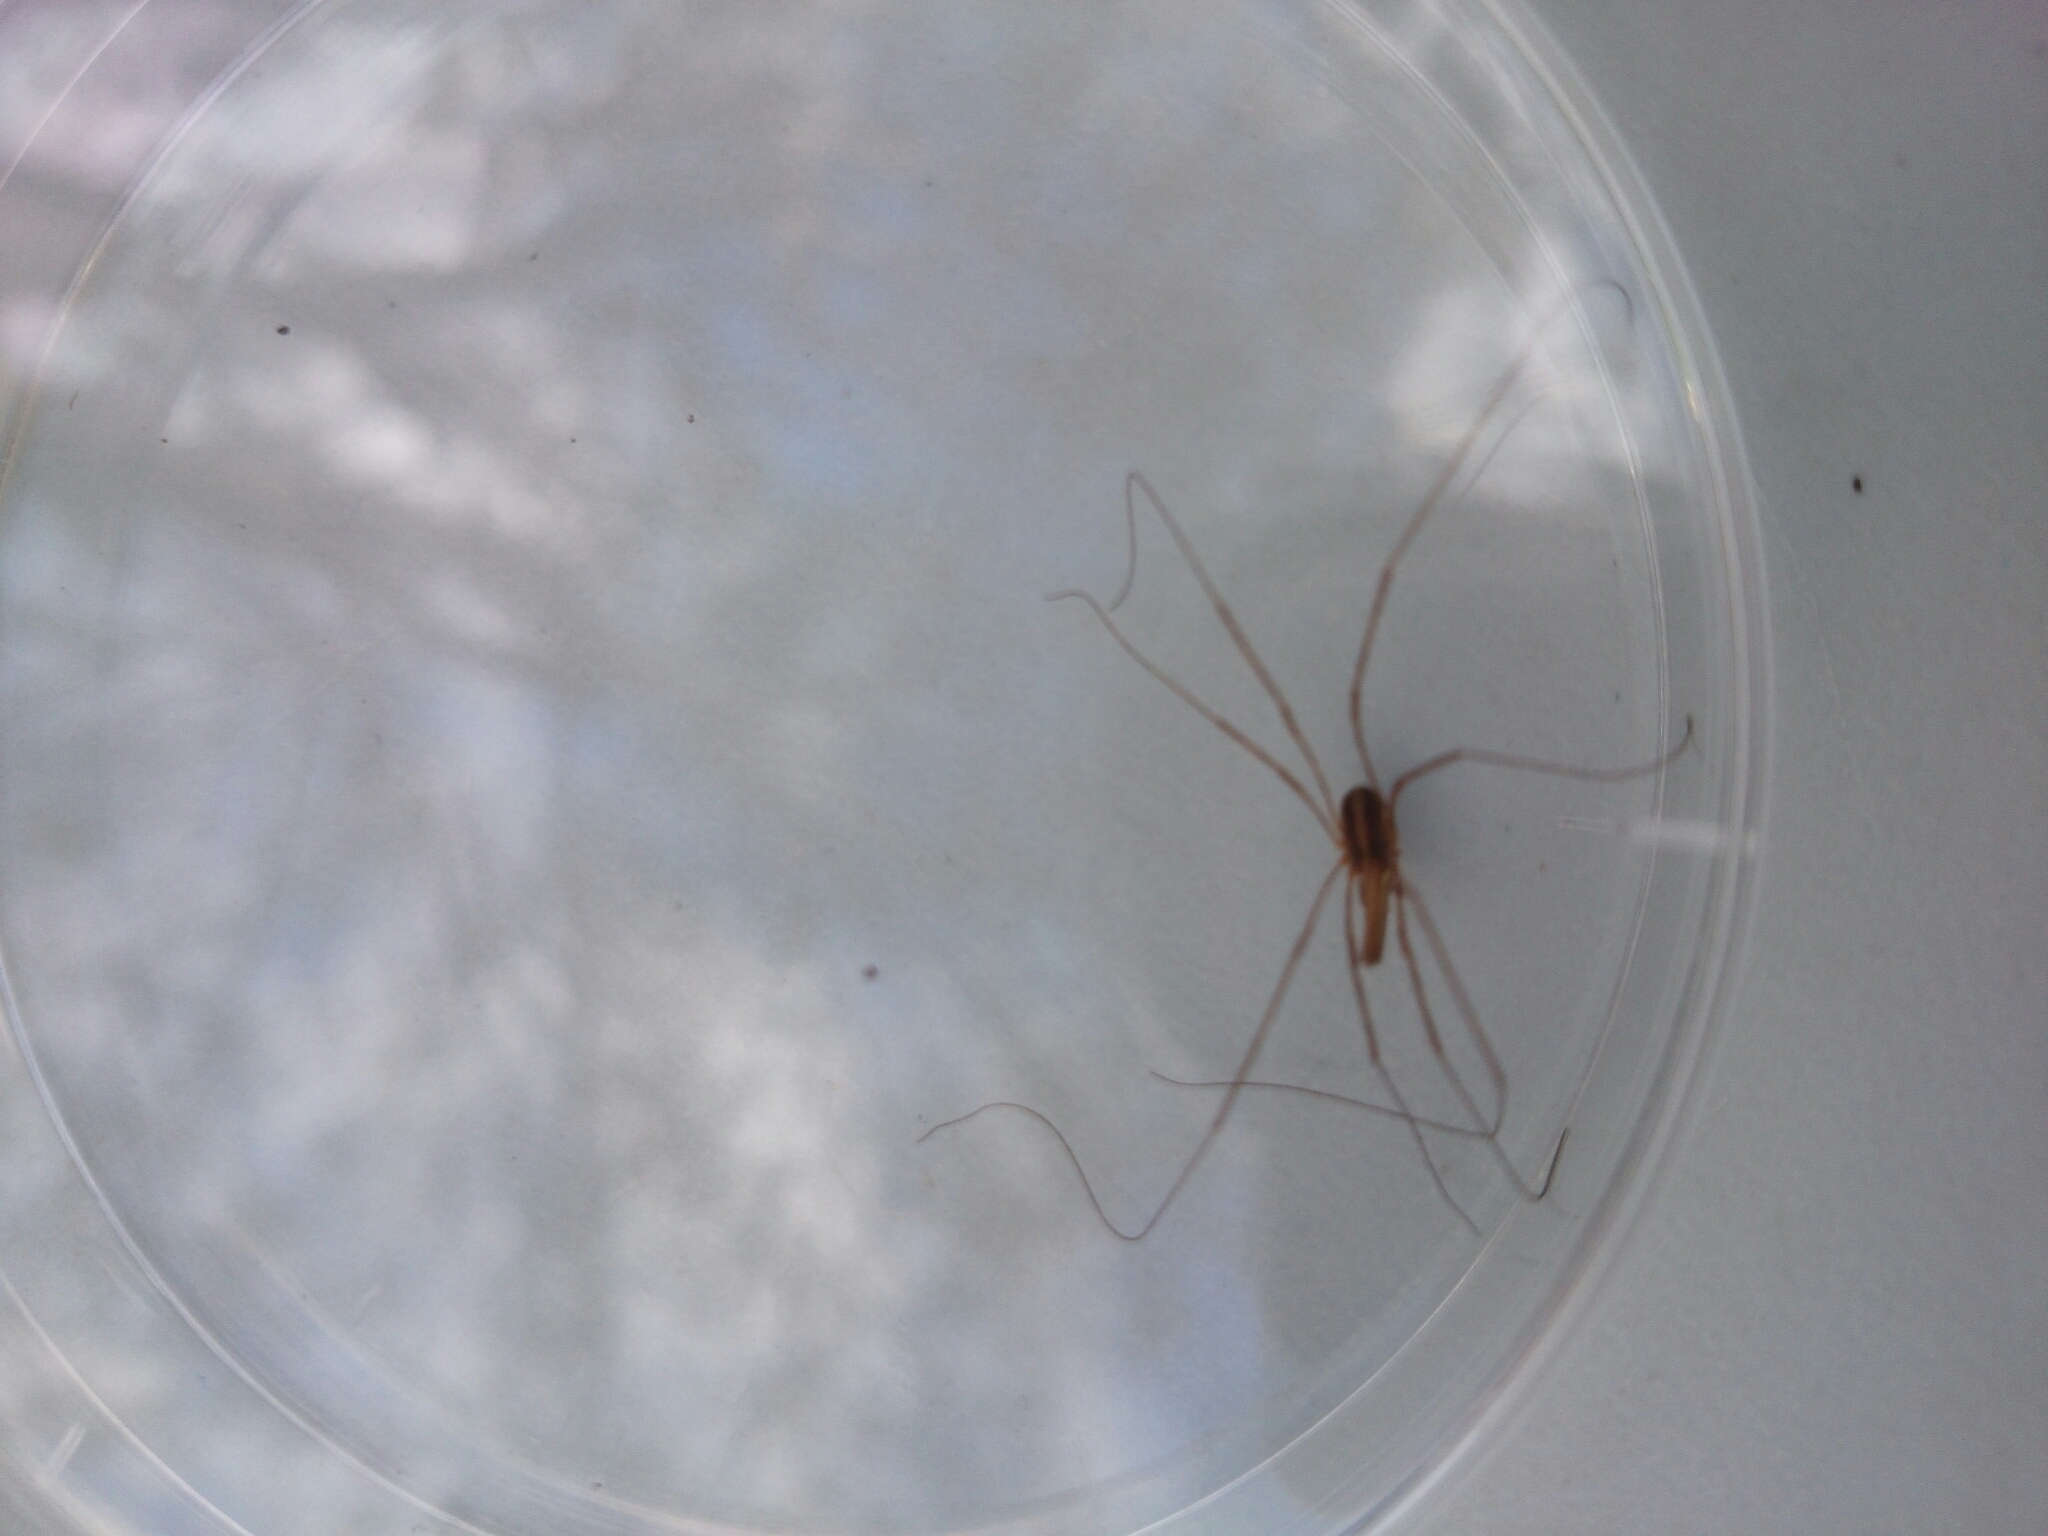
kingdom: Animalia
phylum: Arthropoda
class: Arachnida
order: Opiliones
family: Neopilionidae
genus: Megalopsalis
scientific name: Megalopsalis tasmanica
